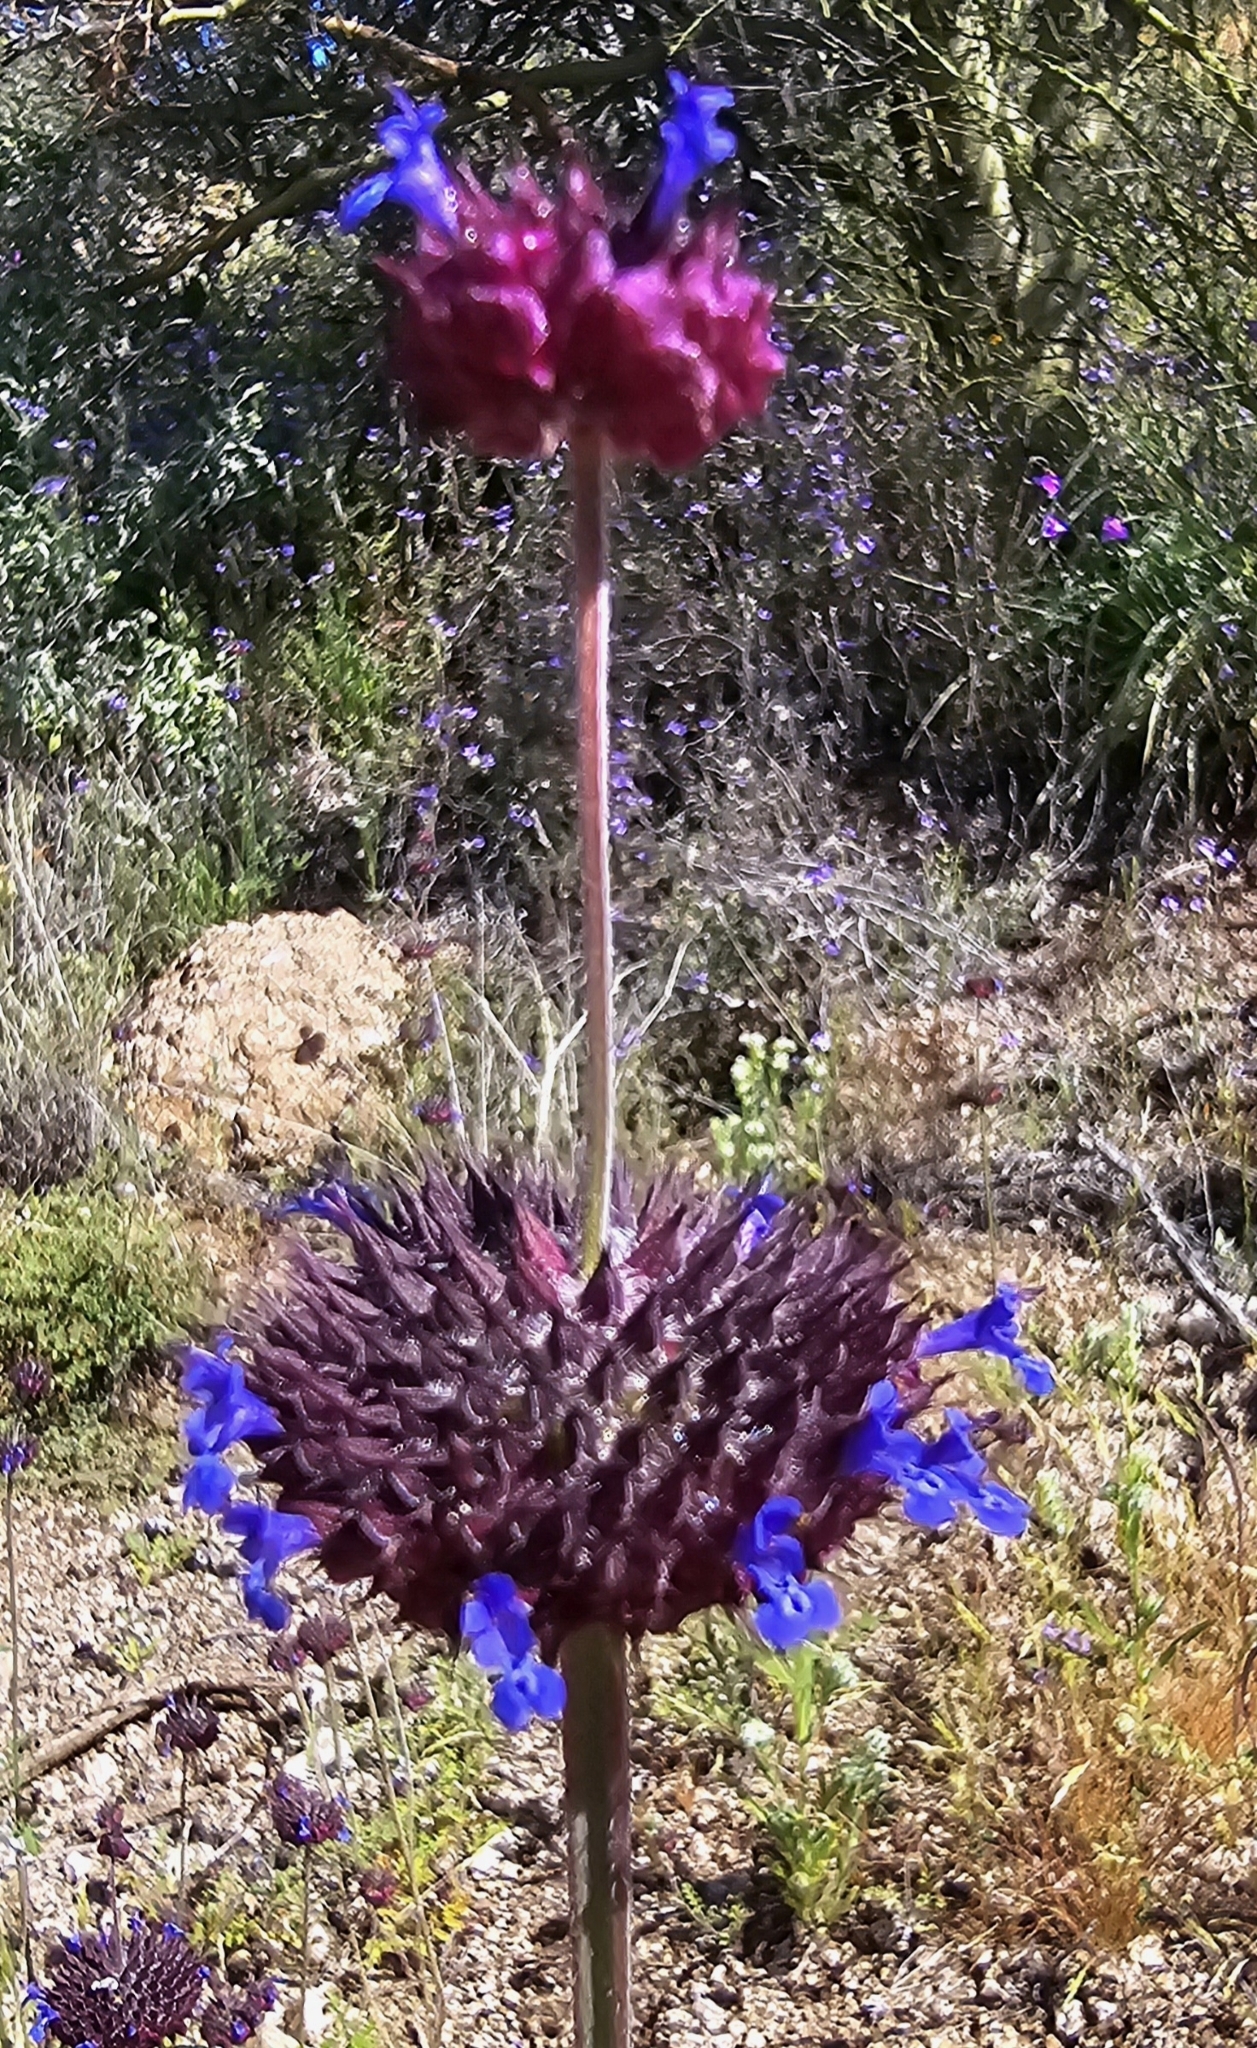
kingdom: Plantae
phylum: Tracheophyta
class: Magnoliopsida
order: Lamiales
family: Lamiaceae
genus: Salvia
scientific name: Salvia columbariae
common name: Chia
